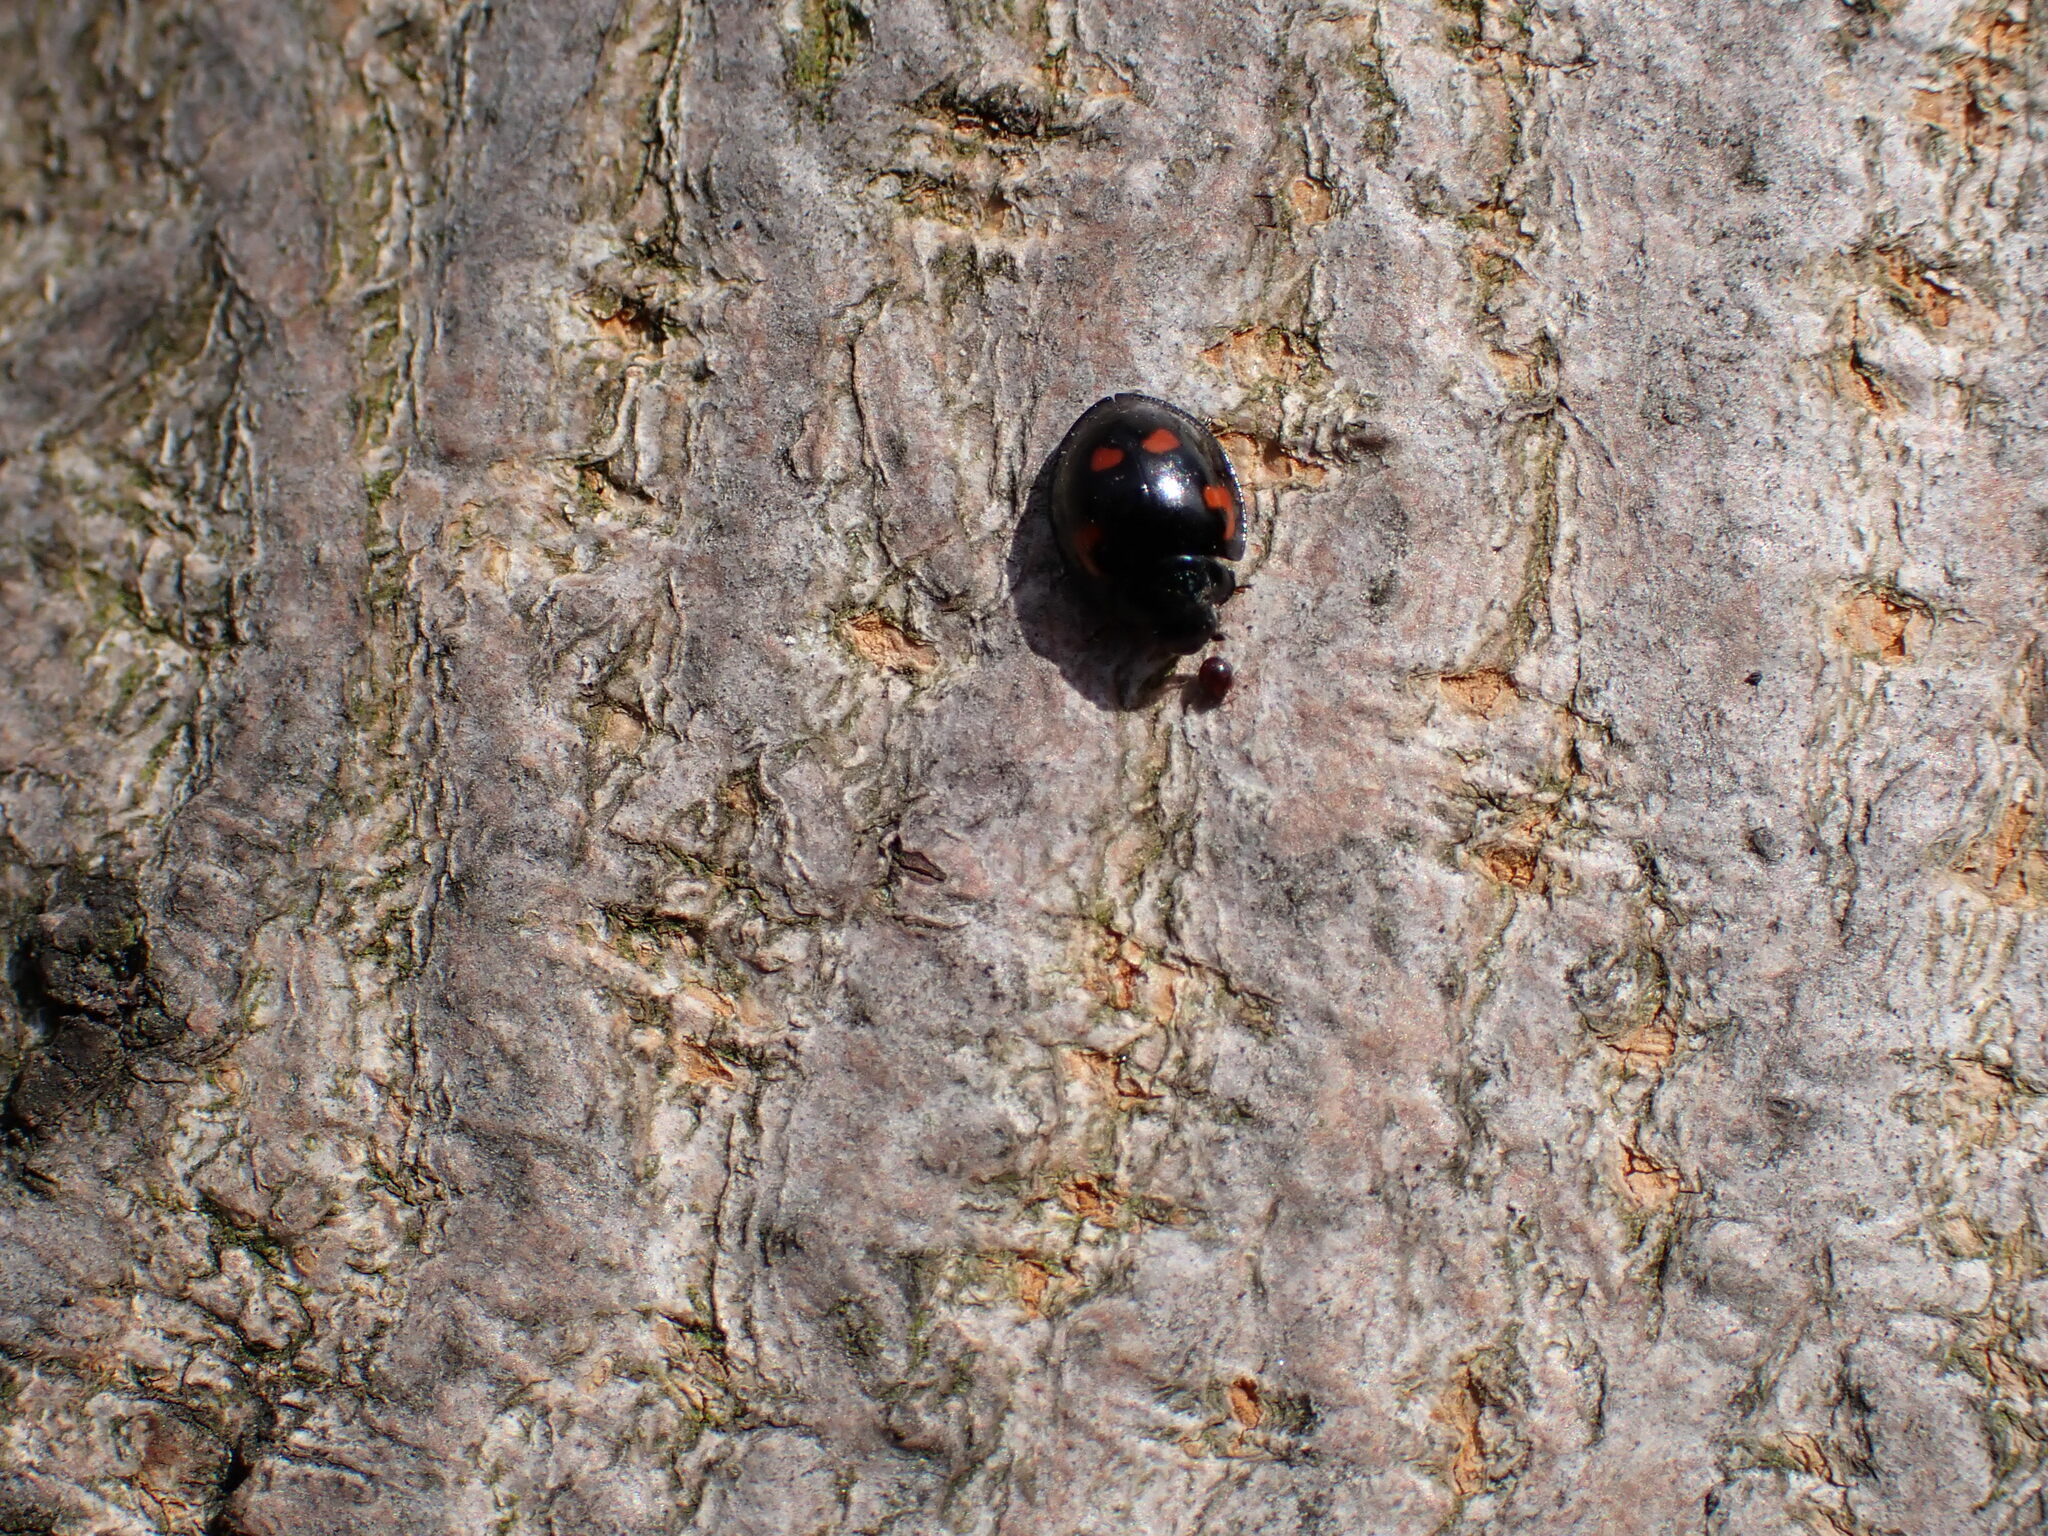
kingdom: Animalia
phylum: Arthropoda
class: Insecta
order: Coleoptera
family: Coccinellidae
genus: Brumus
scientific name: Brumus quadripustulatus
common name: Ladybird beetle
